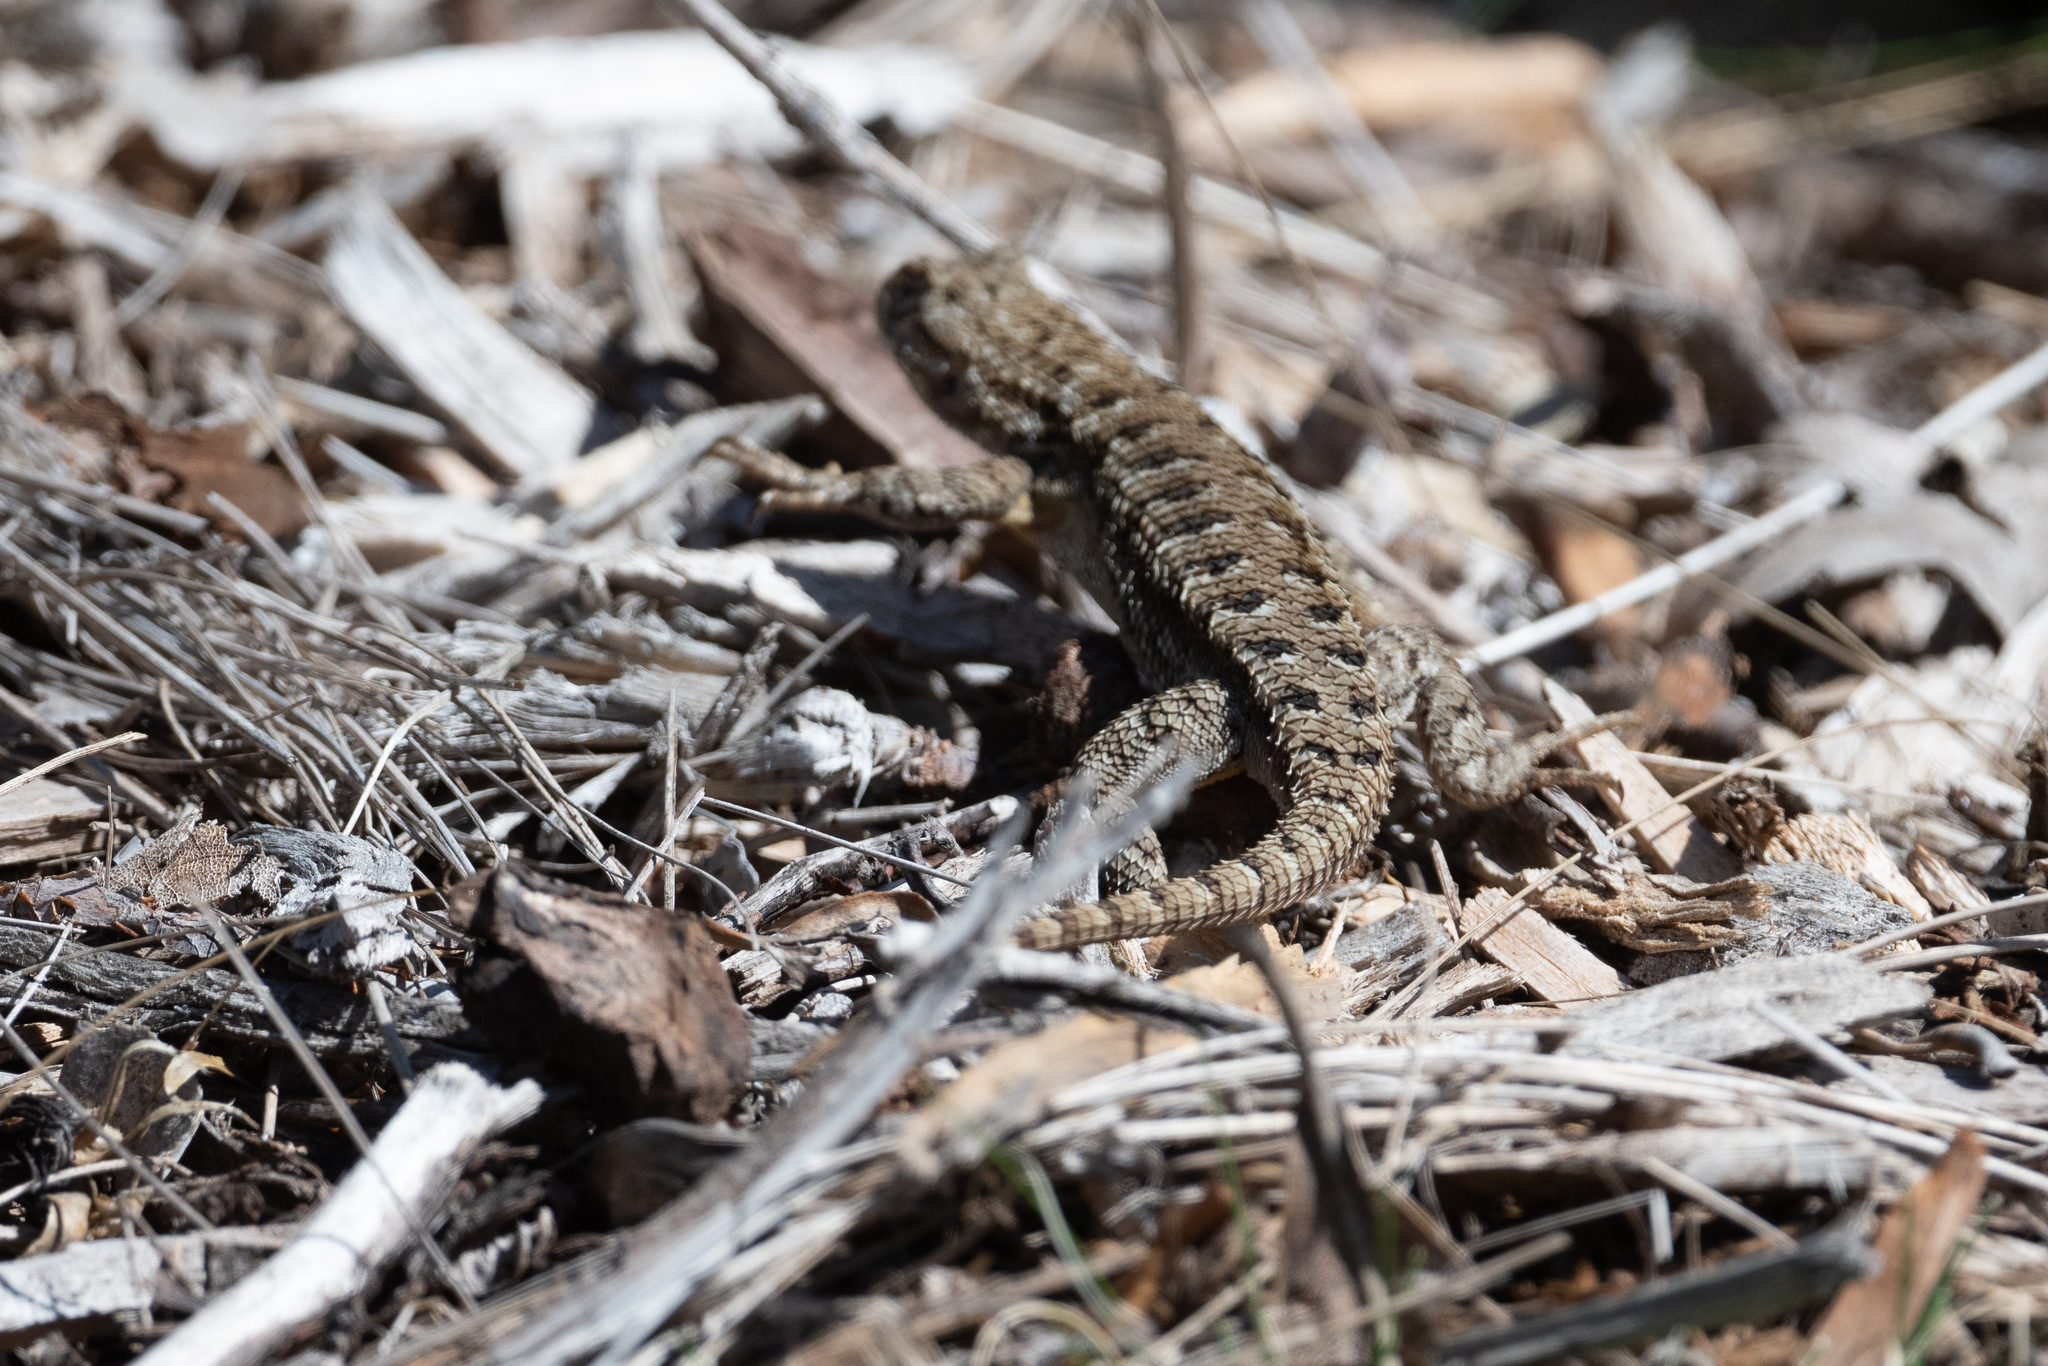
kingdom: Animalia
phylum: Chordata
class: Squamata
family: Phrynosomatidae
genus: Sceloporus
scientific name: Sceloporus occidentalis
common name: Western fence lizard
